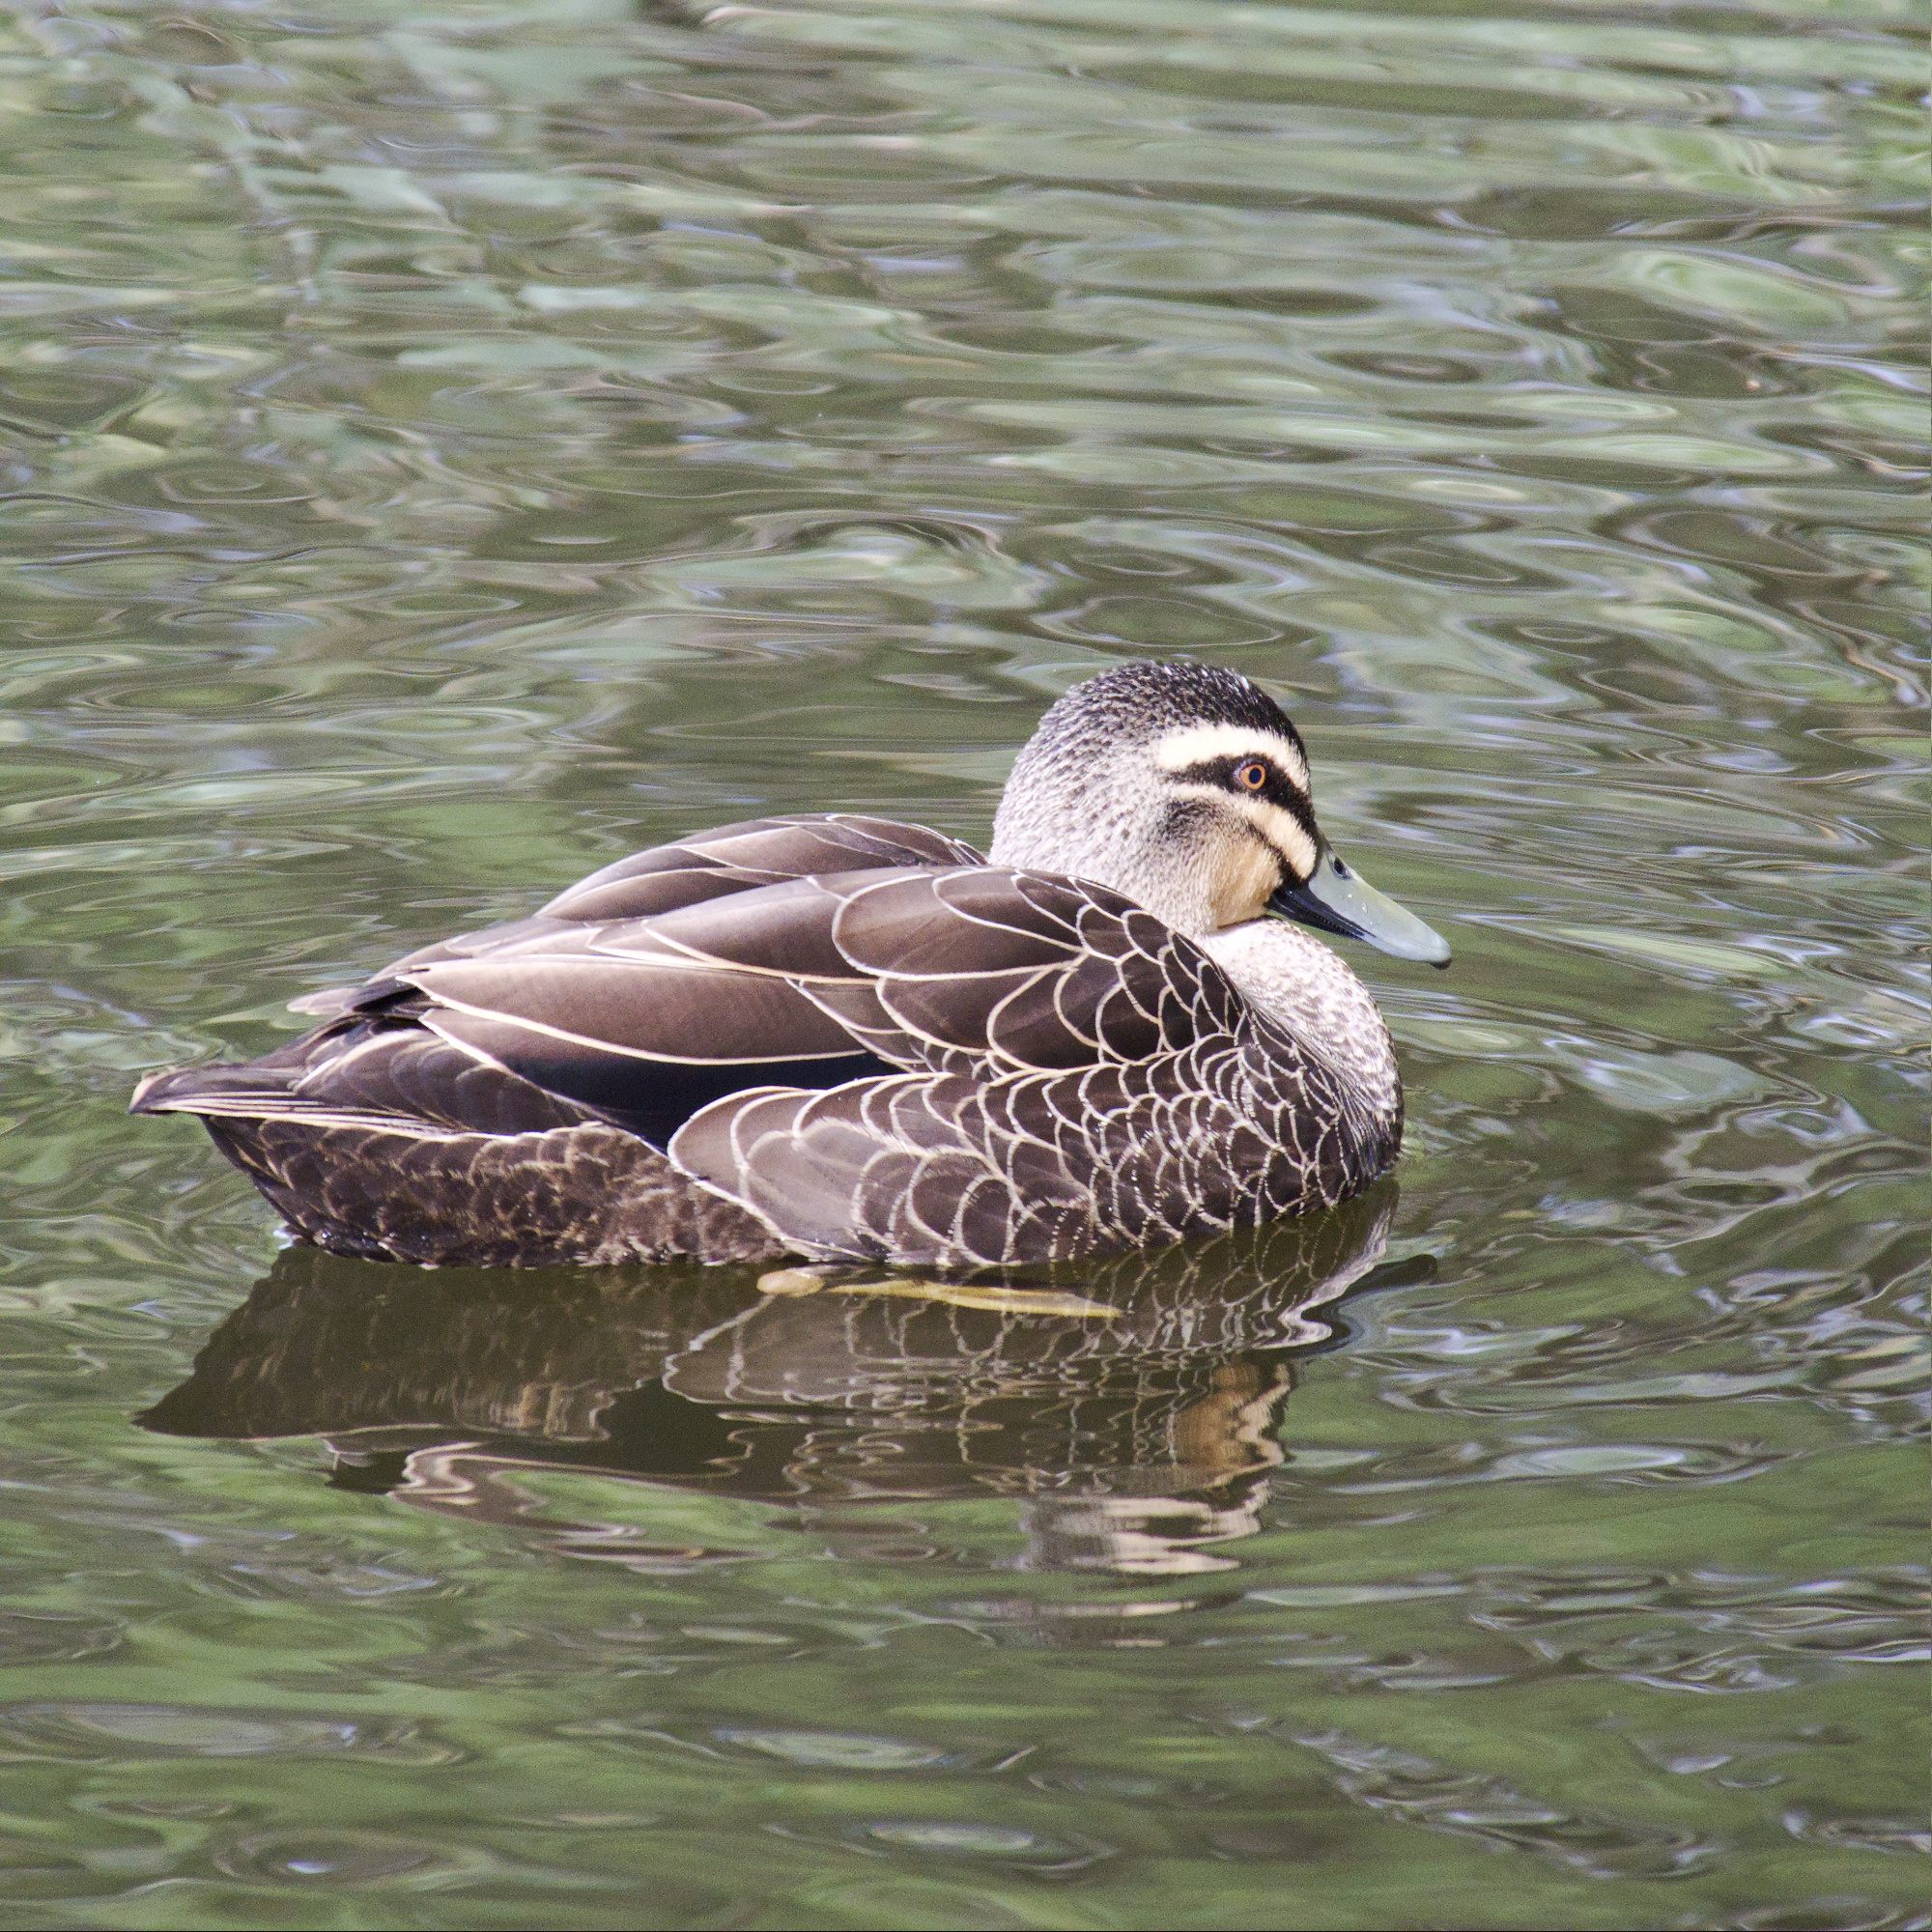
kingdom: Animalia
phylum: Chordata
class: Aves
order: Anseriformes
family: Anatidae
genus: Anas
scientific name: Anas superciliosa
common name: Pacific black duck
